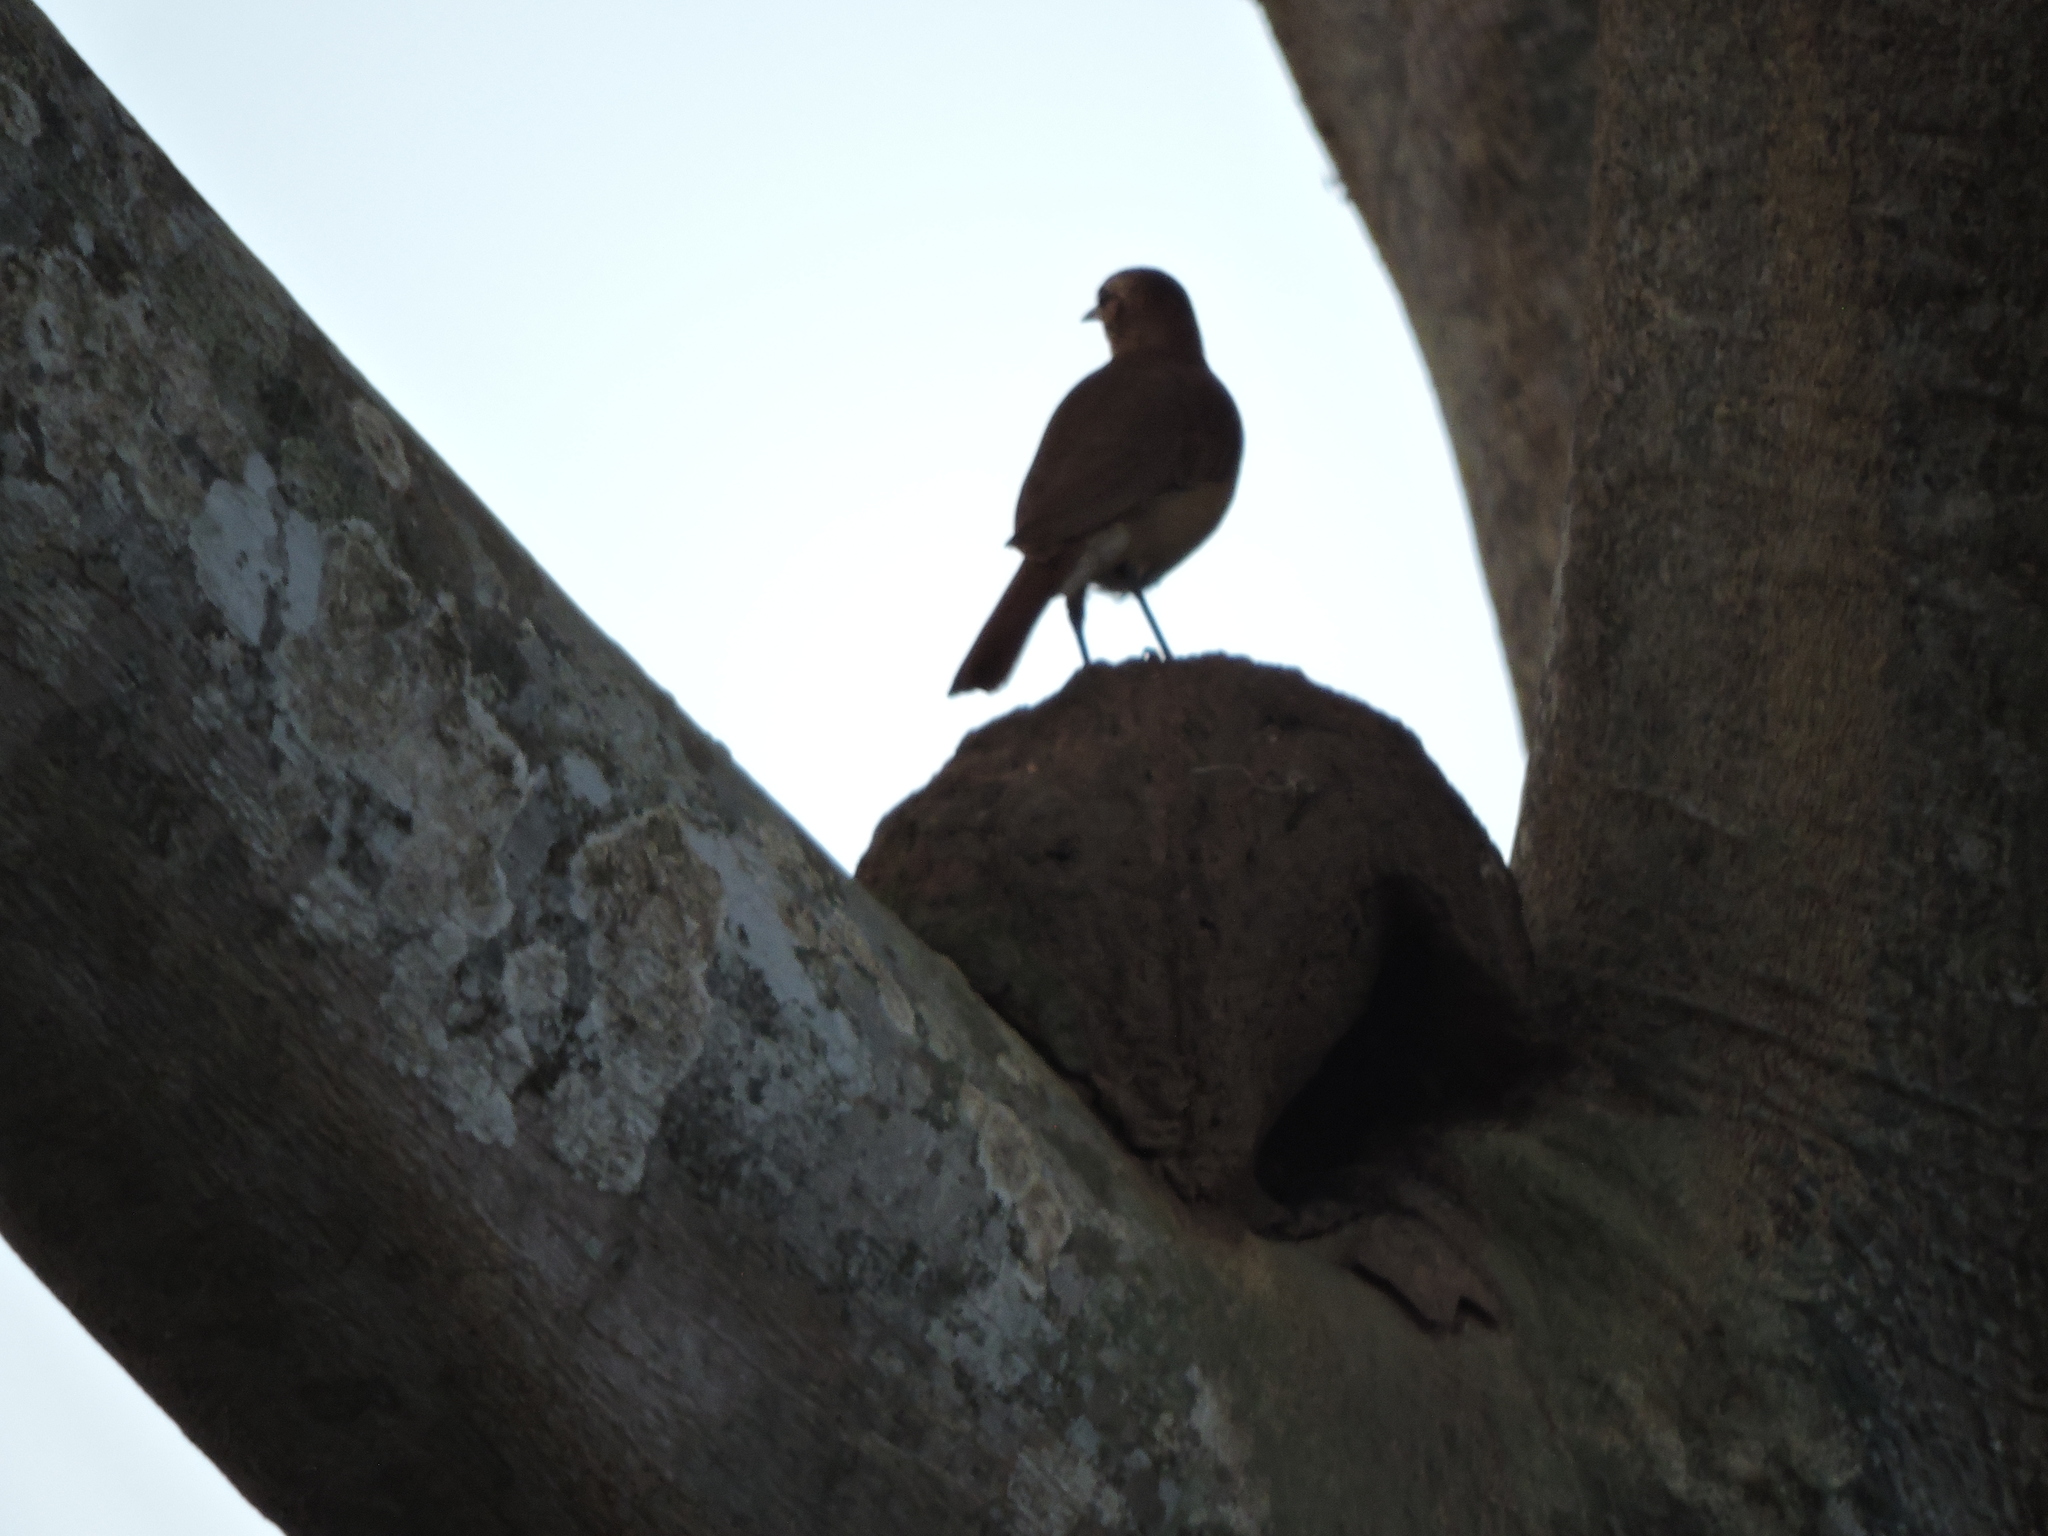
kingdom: Animalia
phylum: Chordata
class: Aves
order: Passeriformes
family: Furnariidae
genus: Furnarius
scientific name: Furnarius rufus
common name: Rufous hornero
